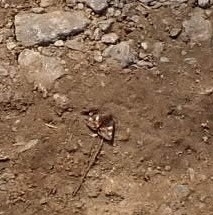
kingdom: Animalia
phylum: Arthropoda
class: Insecta
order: Lepidoptera
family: Geometridae
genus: Archiearis
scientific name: Archiearis parthenias
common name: Orange underwing
